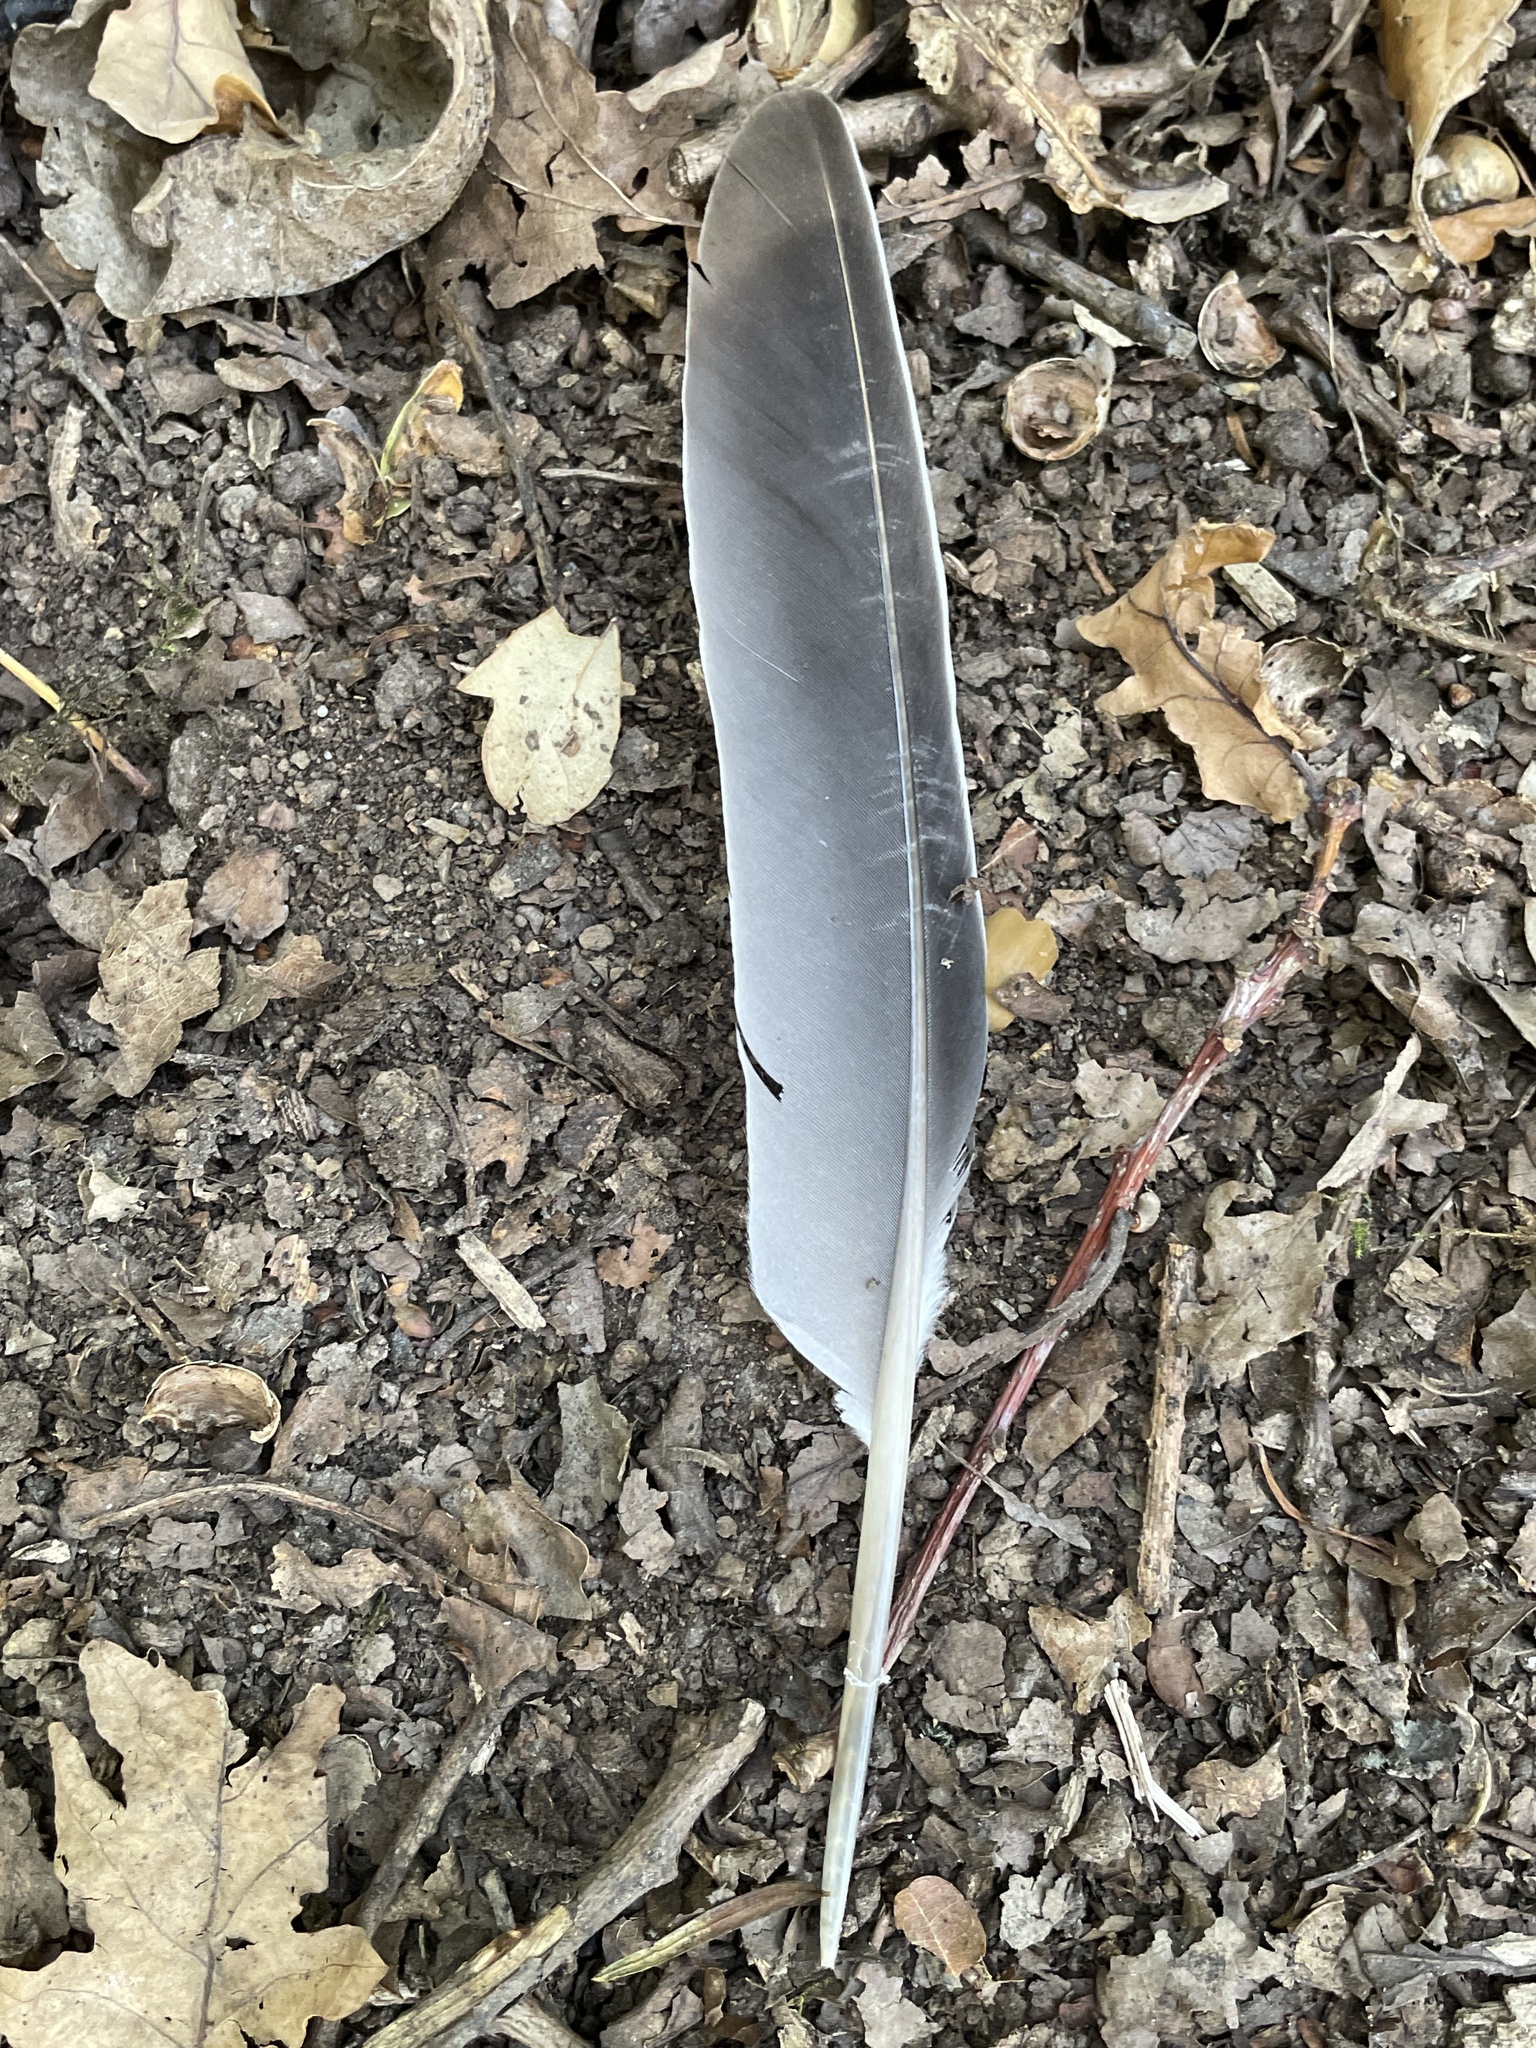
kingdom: Animalia
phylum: Chordata
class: Aves
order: Columbiformes
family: Columbidae
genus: Columba
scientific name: Columba palumbus
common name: Common wood pigeon
